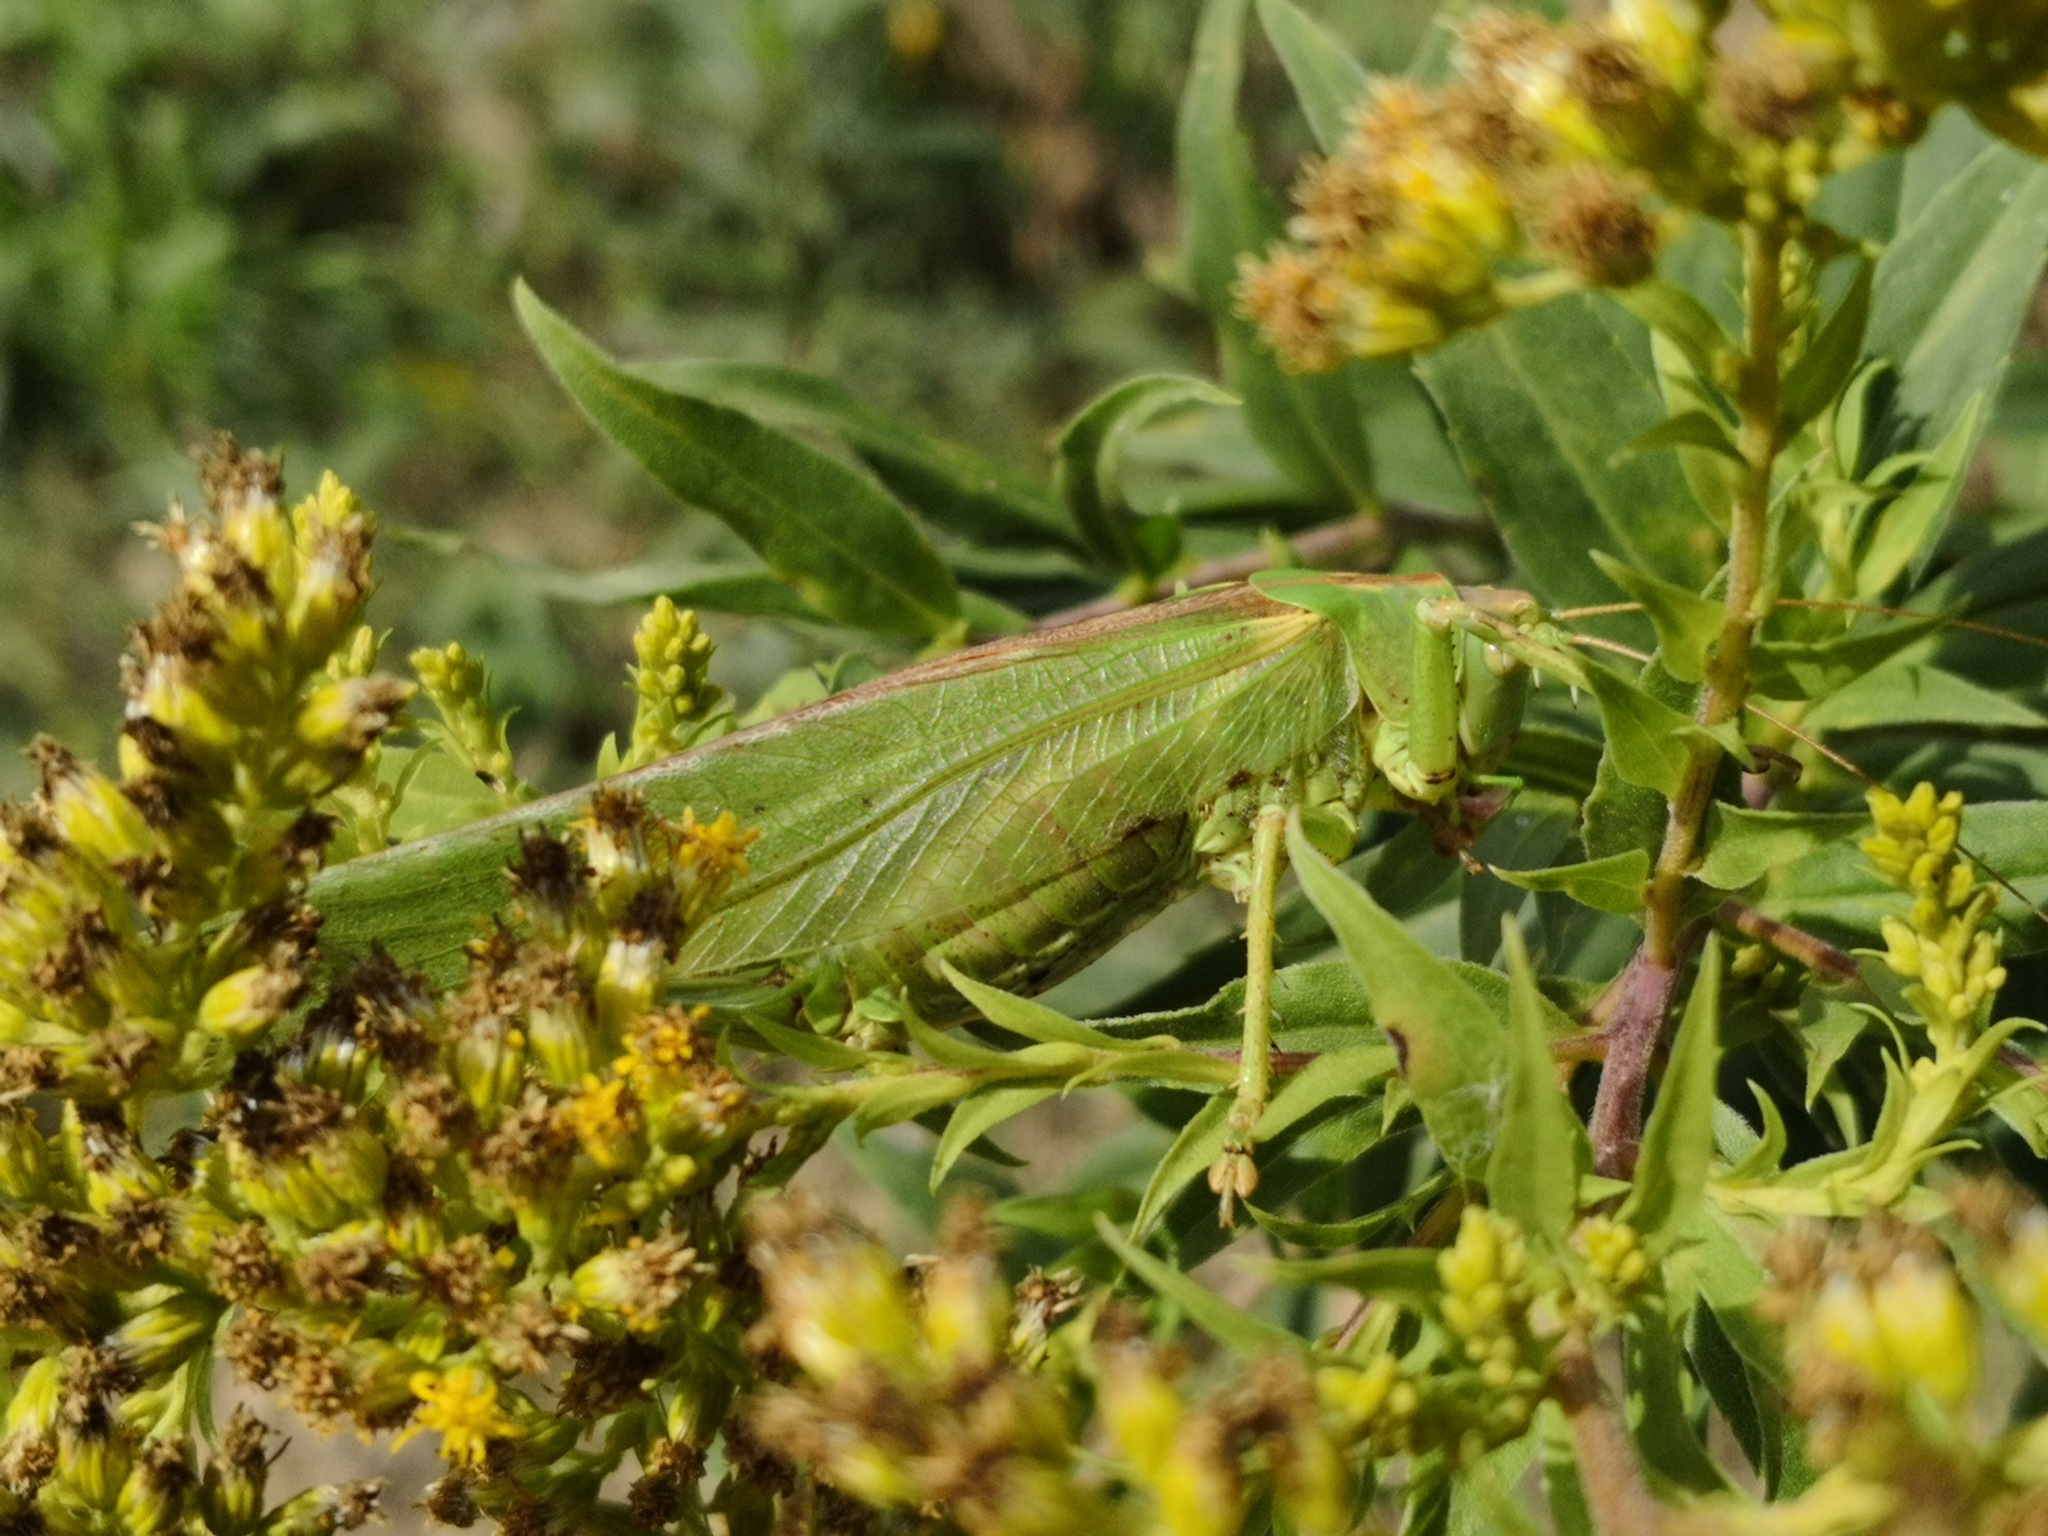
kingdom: Animalia
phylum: Arthropoda
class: Insecta
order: Orthoptera
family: Tettigoniidae
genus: Tettigonia
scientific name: Tettigonia viridissima
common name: Great green bush-cricket
